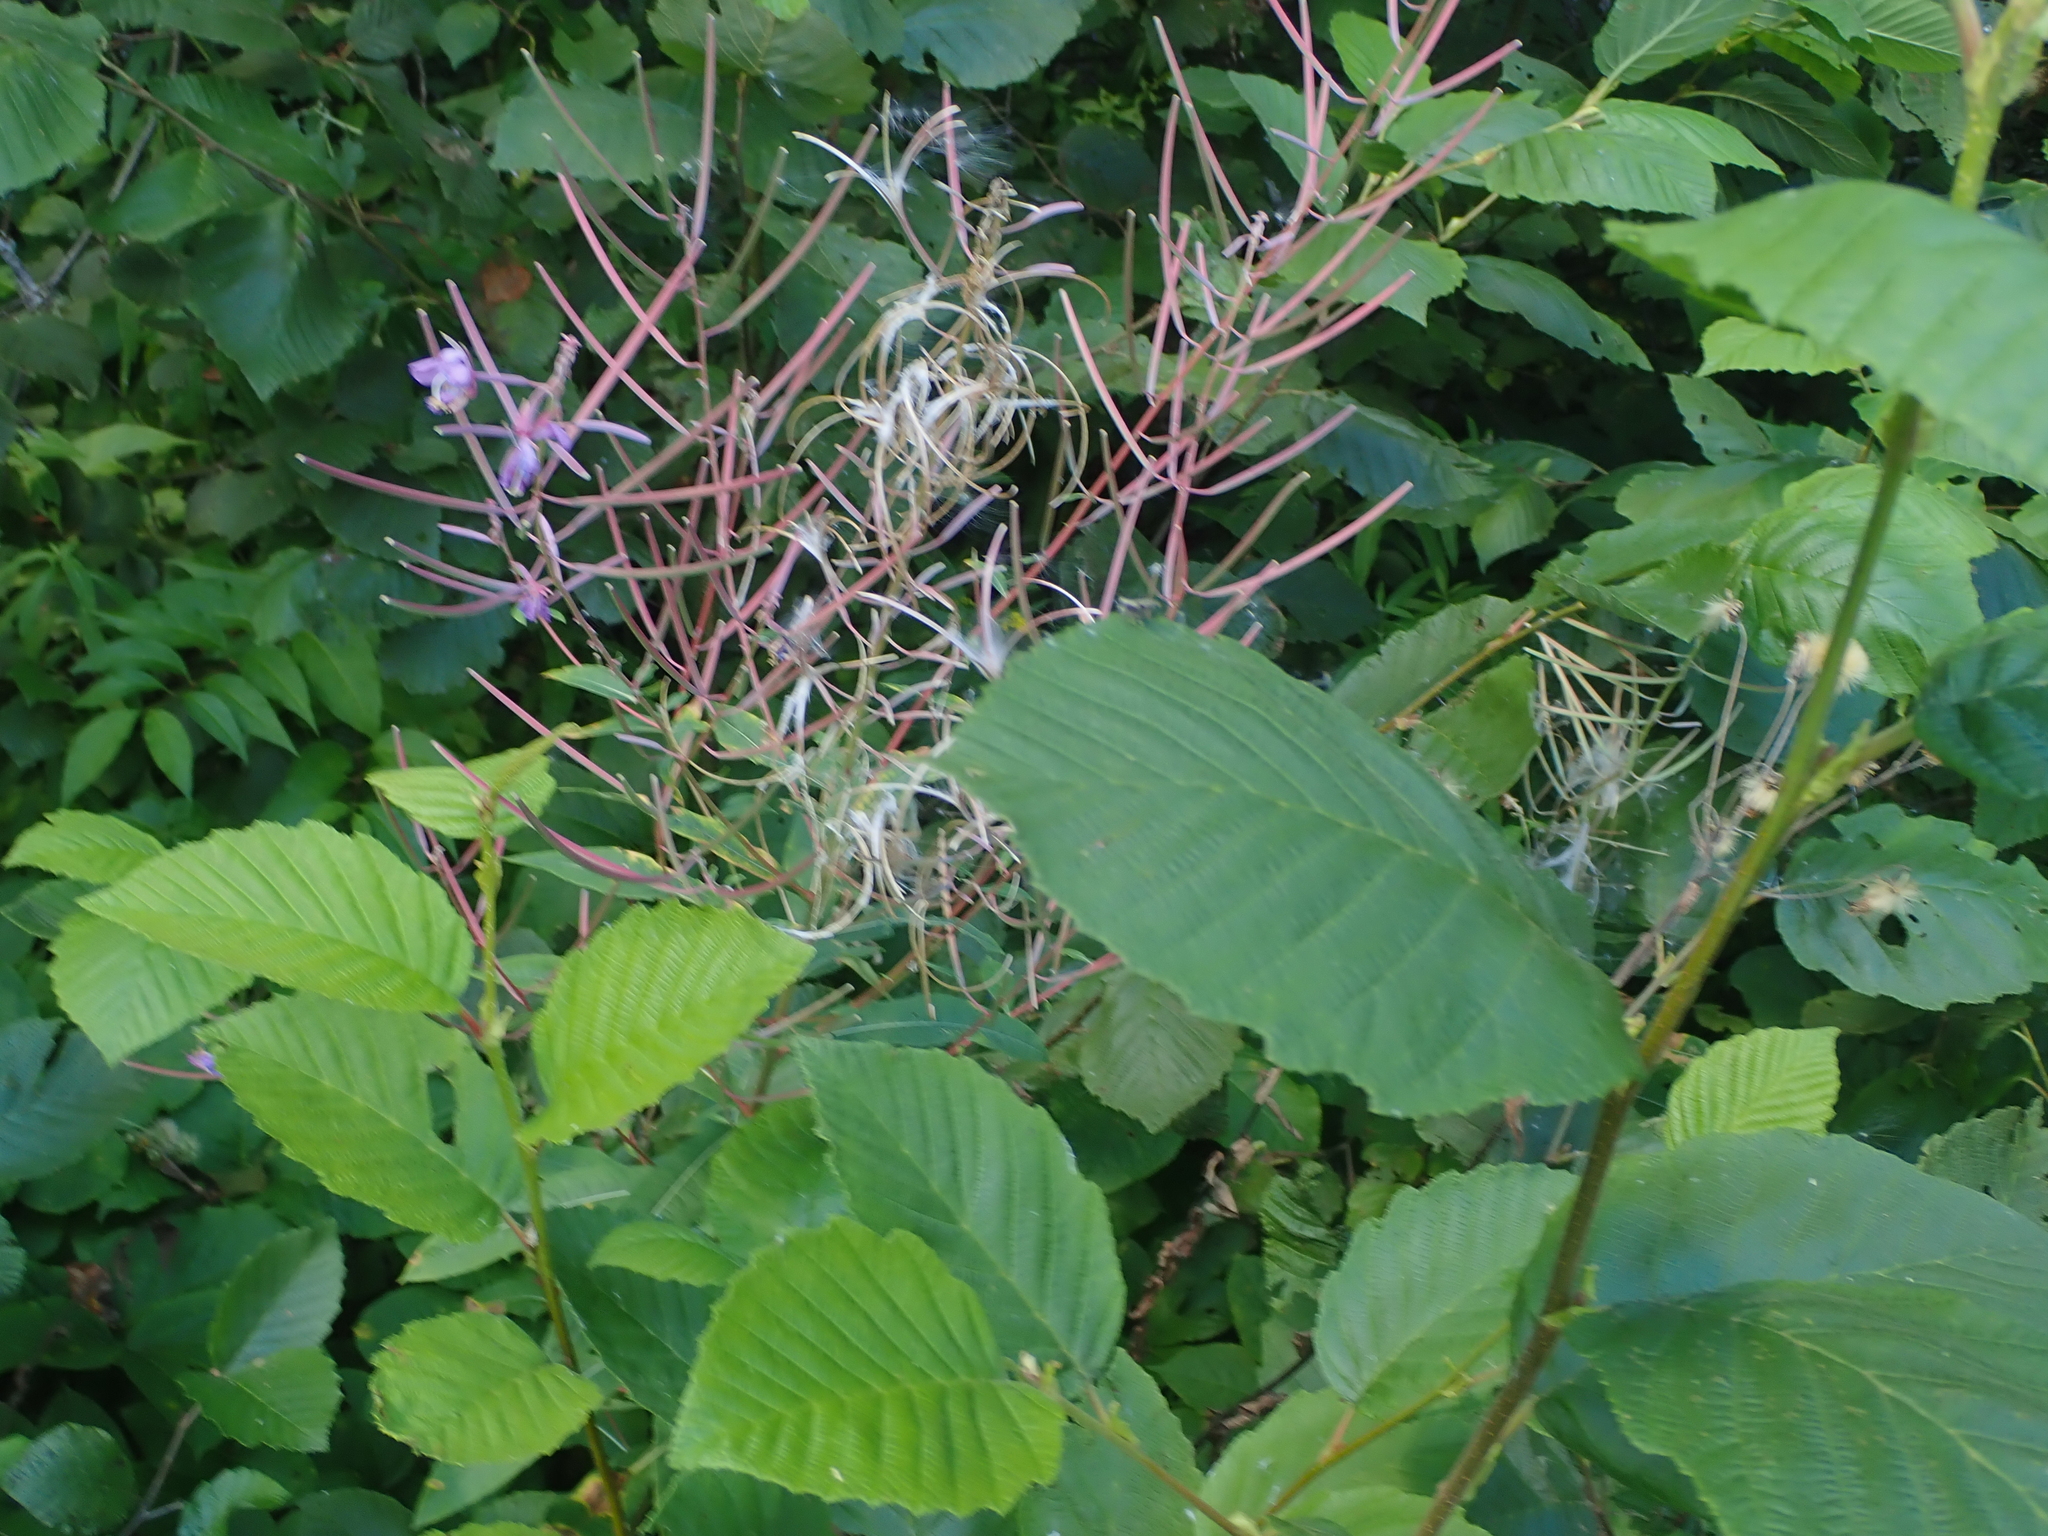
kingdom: Plantae
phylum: Tracheophyta
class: Magnoliopsida
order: Myrtales
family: Onagraceae
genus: Chamaenerion
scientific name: Chamaenerion angustifolium
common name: Fireweed
